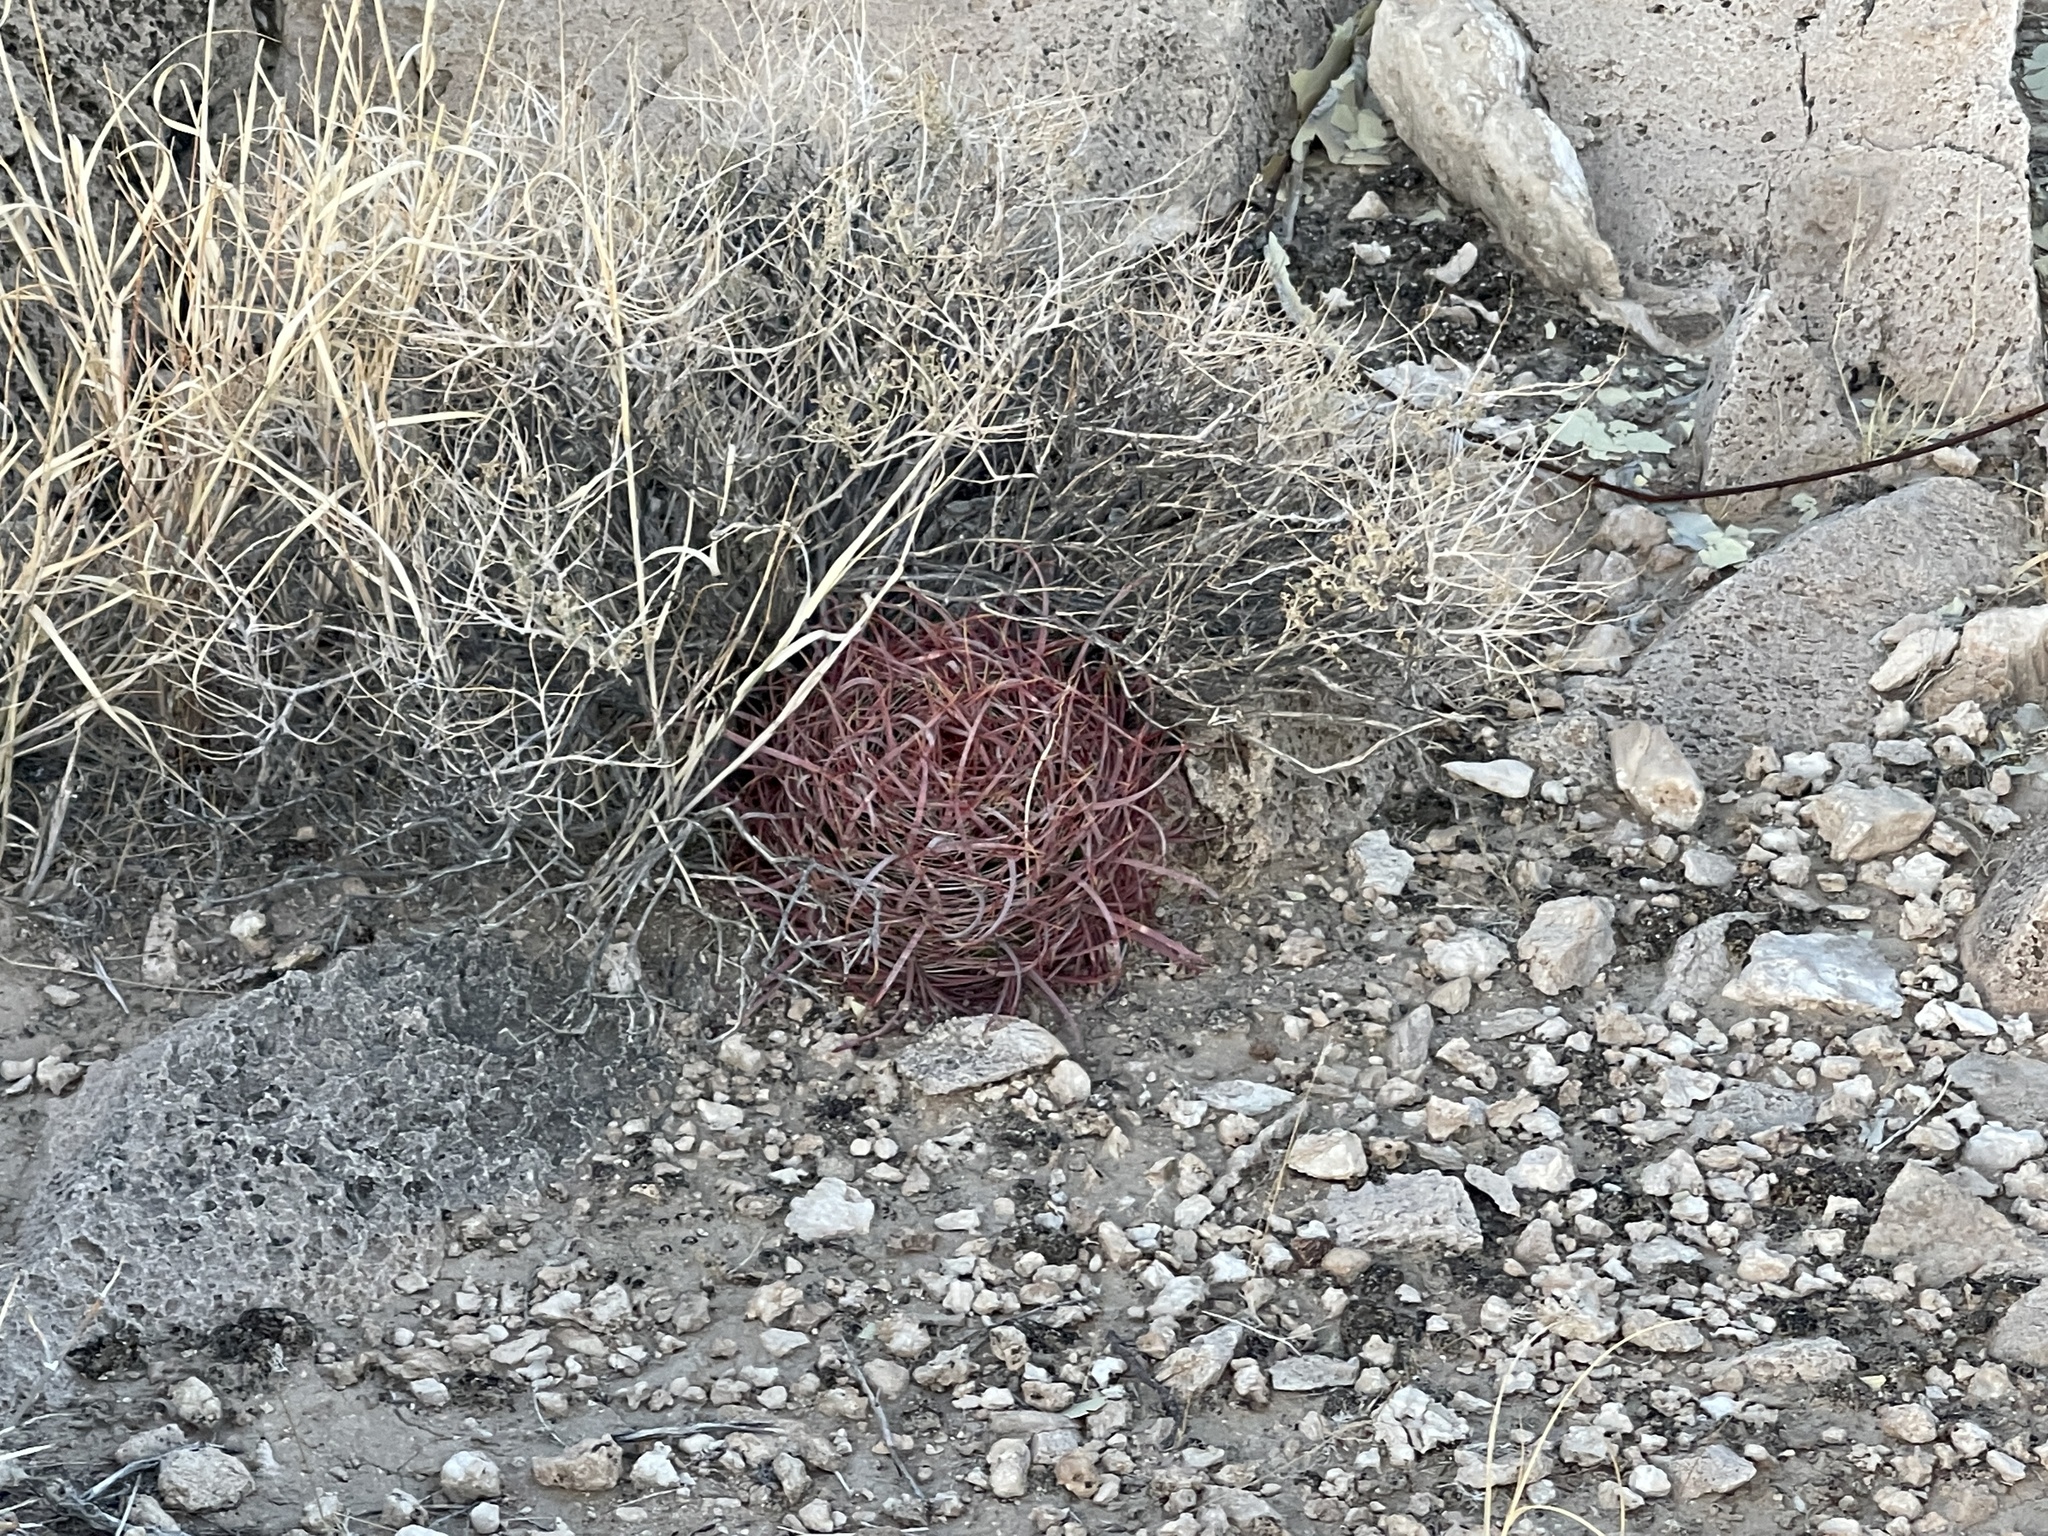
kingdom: Plantae
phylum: Tracheophyta
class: Magnoliopsida
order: Caryophyllales
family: Cactaceae
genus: Ferocactus
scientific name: Ferocactus cylindraceus
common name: California barrel cactus
